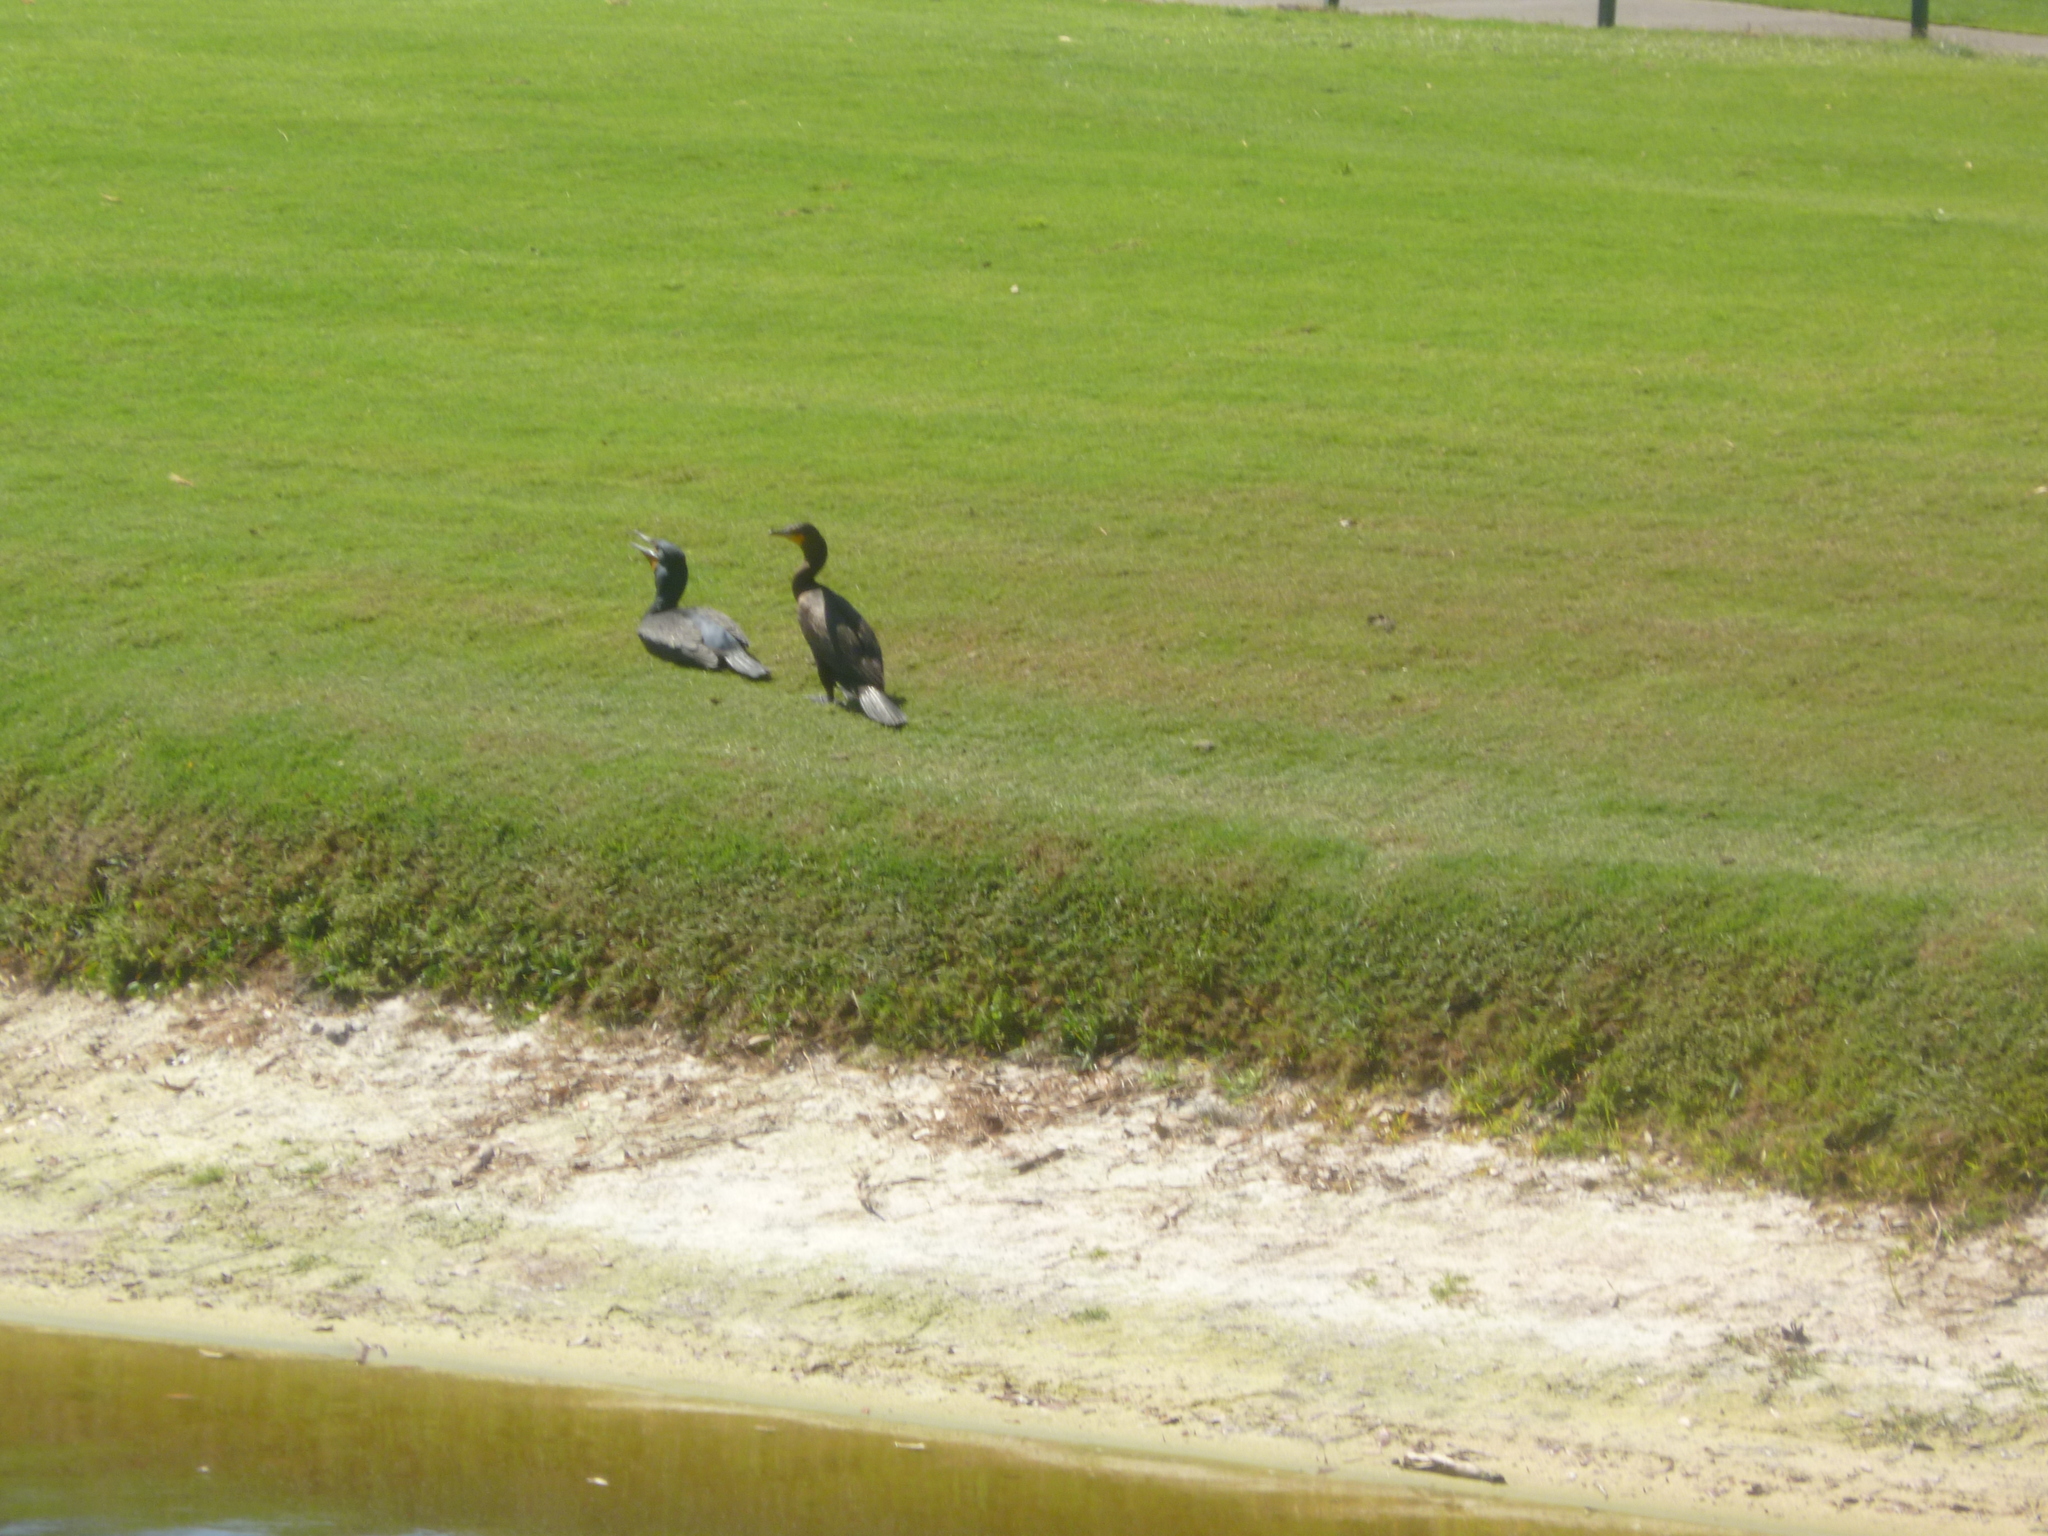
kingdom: Animalia
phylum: Chordata
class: Aves
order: Suliformes
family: Phalacrocoracidae
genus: Phalacrocorax
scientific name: Phalacrocorax auritus
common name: Double-crested cormorant
